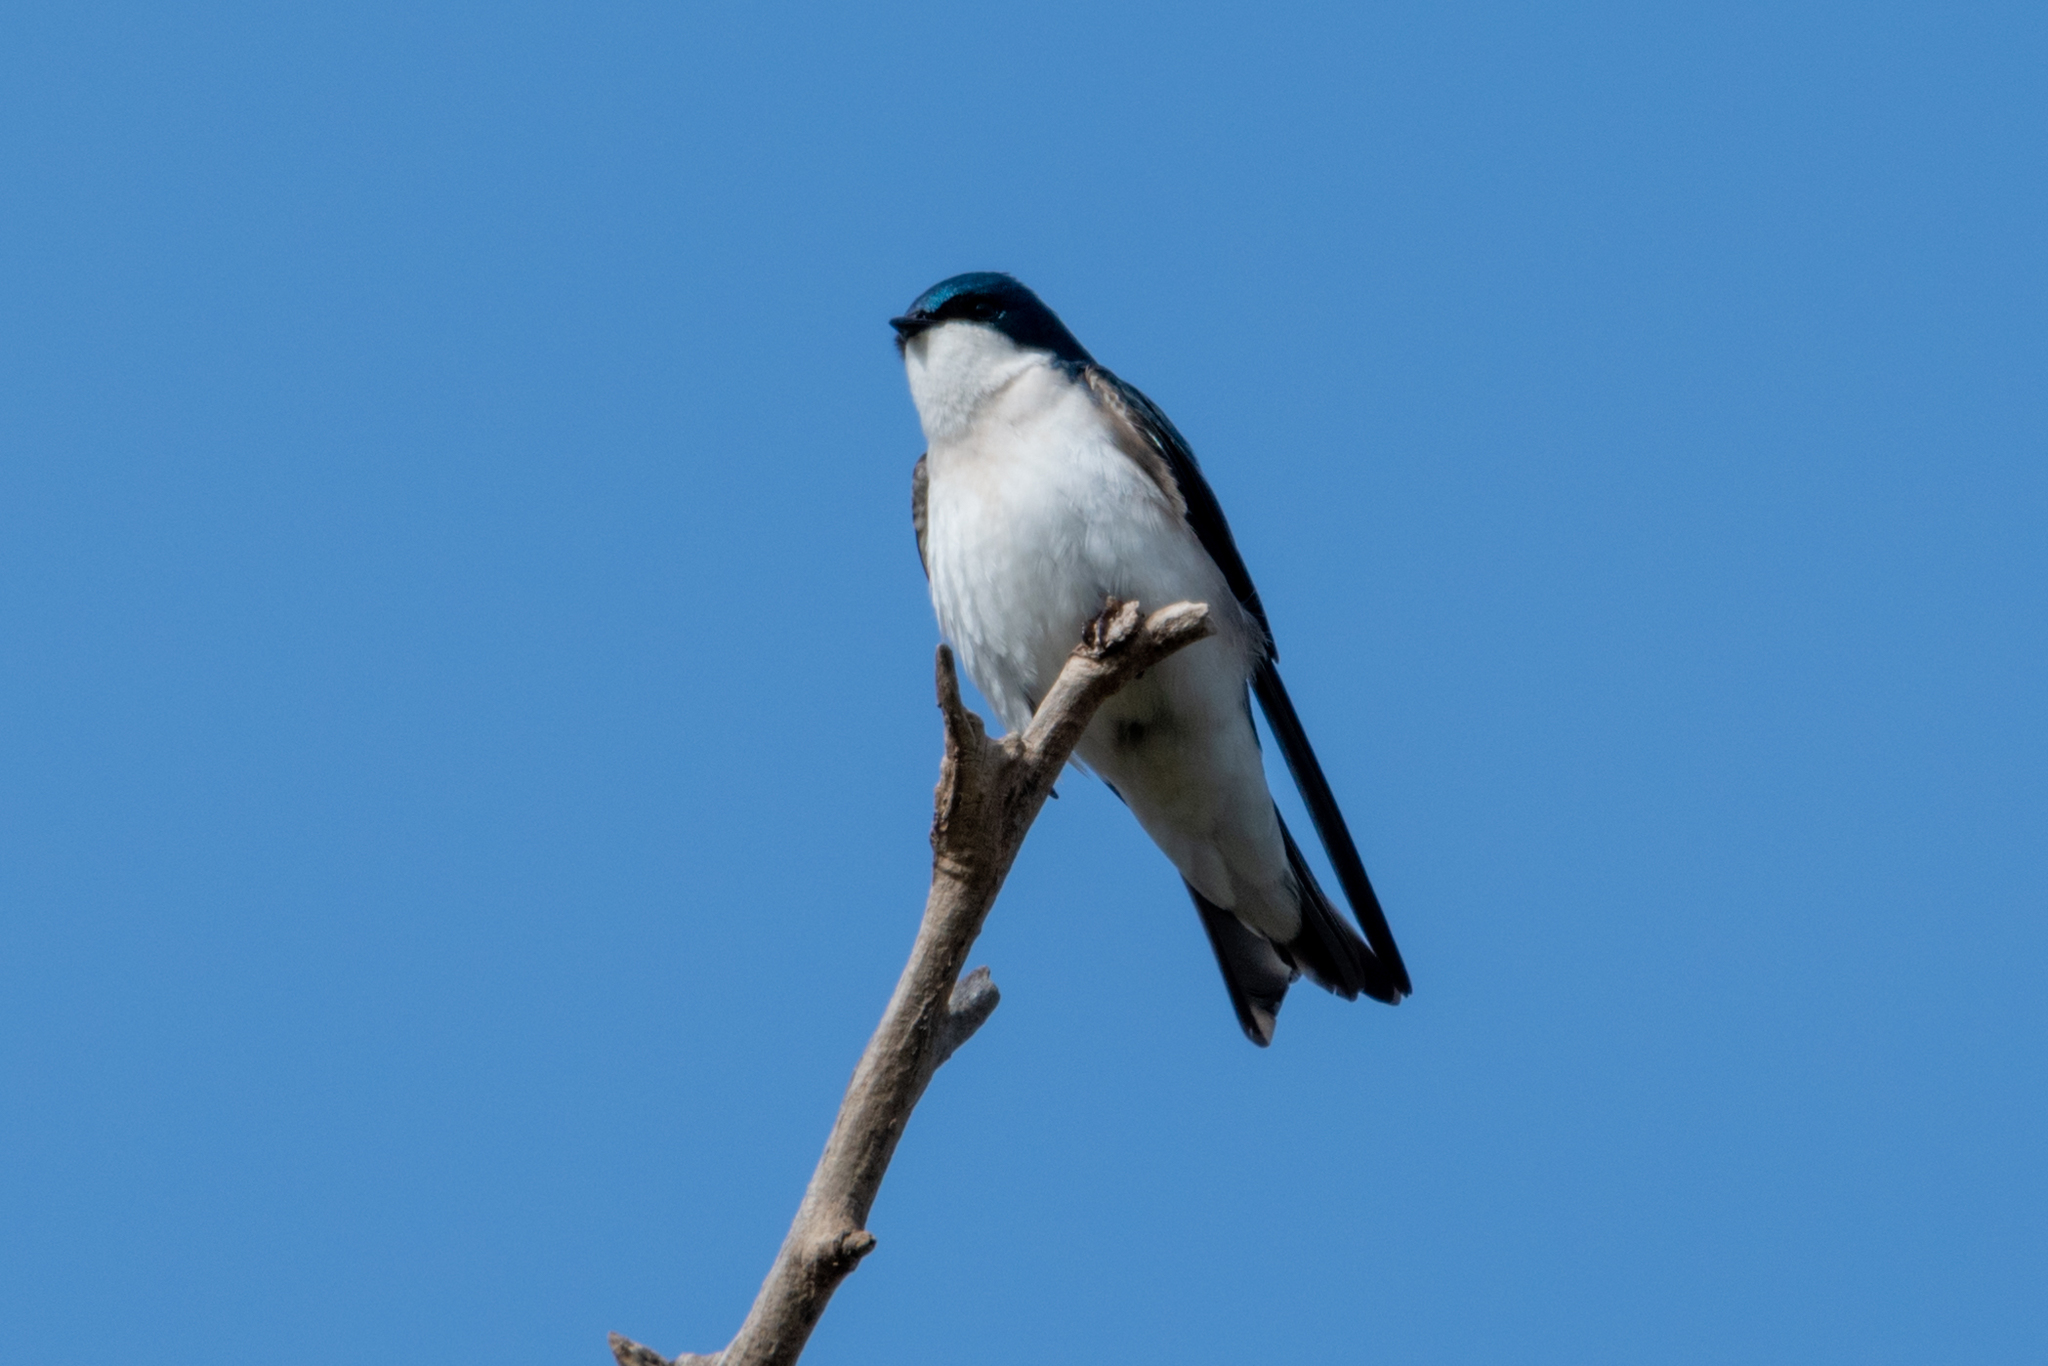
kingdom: Animalia
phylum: Chordata
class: Aves
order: Passeriformes
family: Hirundinidae
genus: Tachycineta
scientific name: Tachycineta bicolor
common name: Tree swallow
